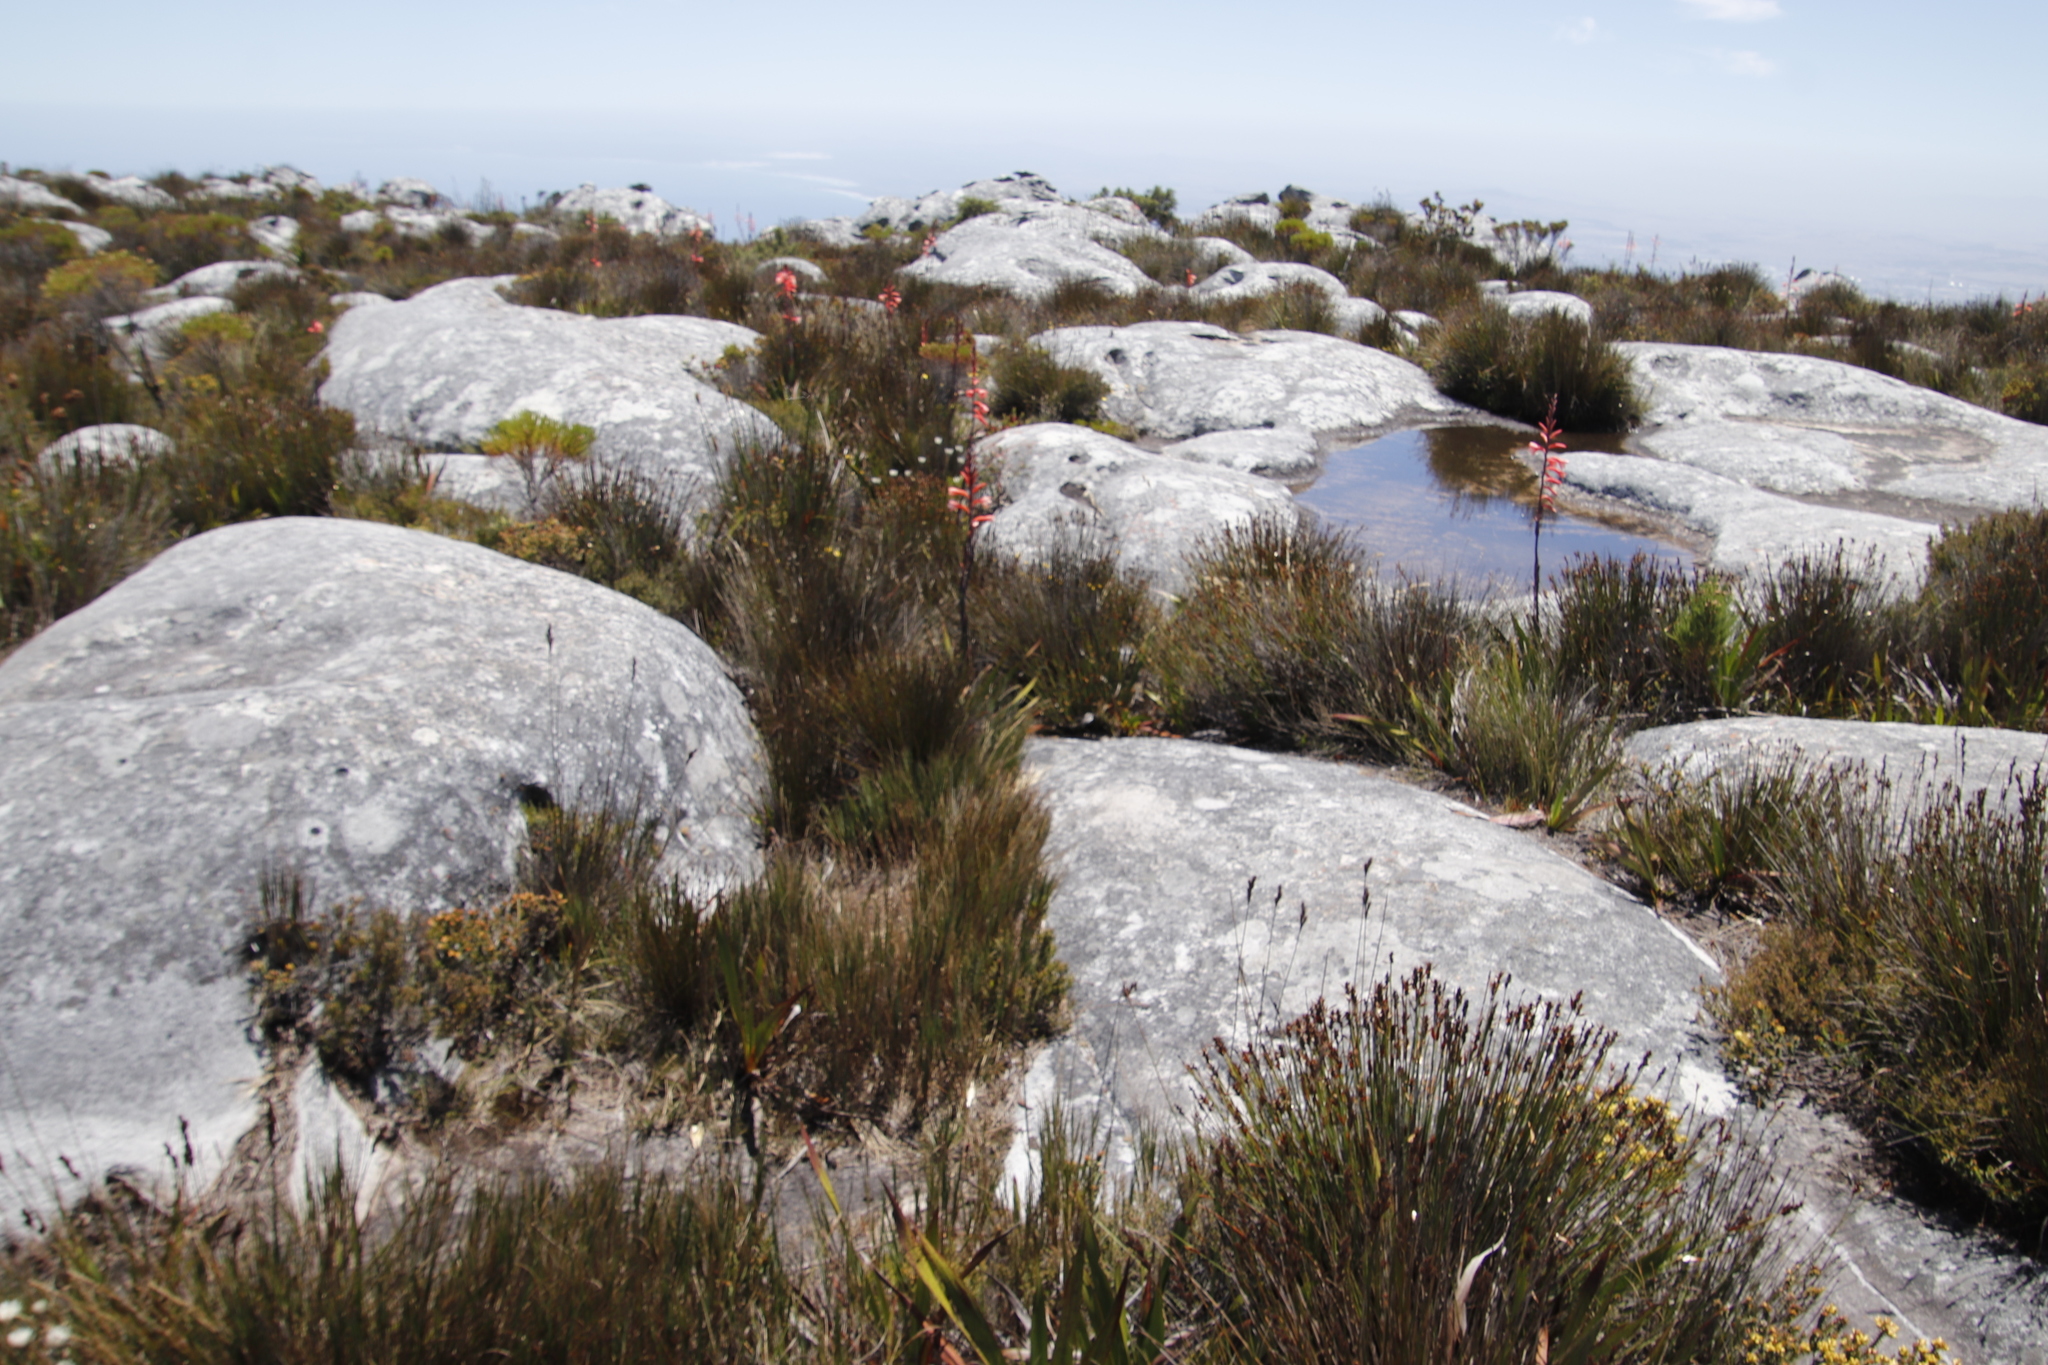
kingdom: Plantae
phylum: Tracheophyta
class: Liliopsida
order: Asparagales
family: Iridaceae
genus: Watsonia
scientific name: Watsonia tabularis
